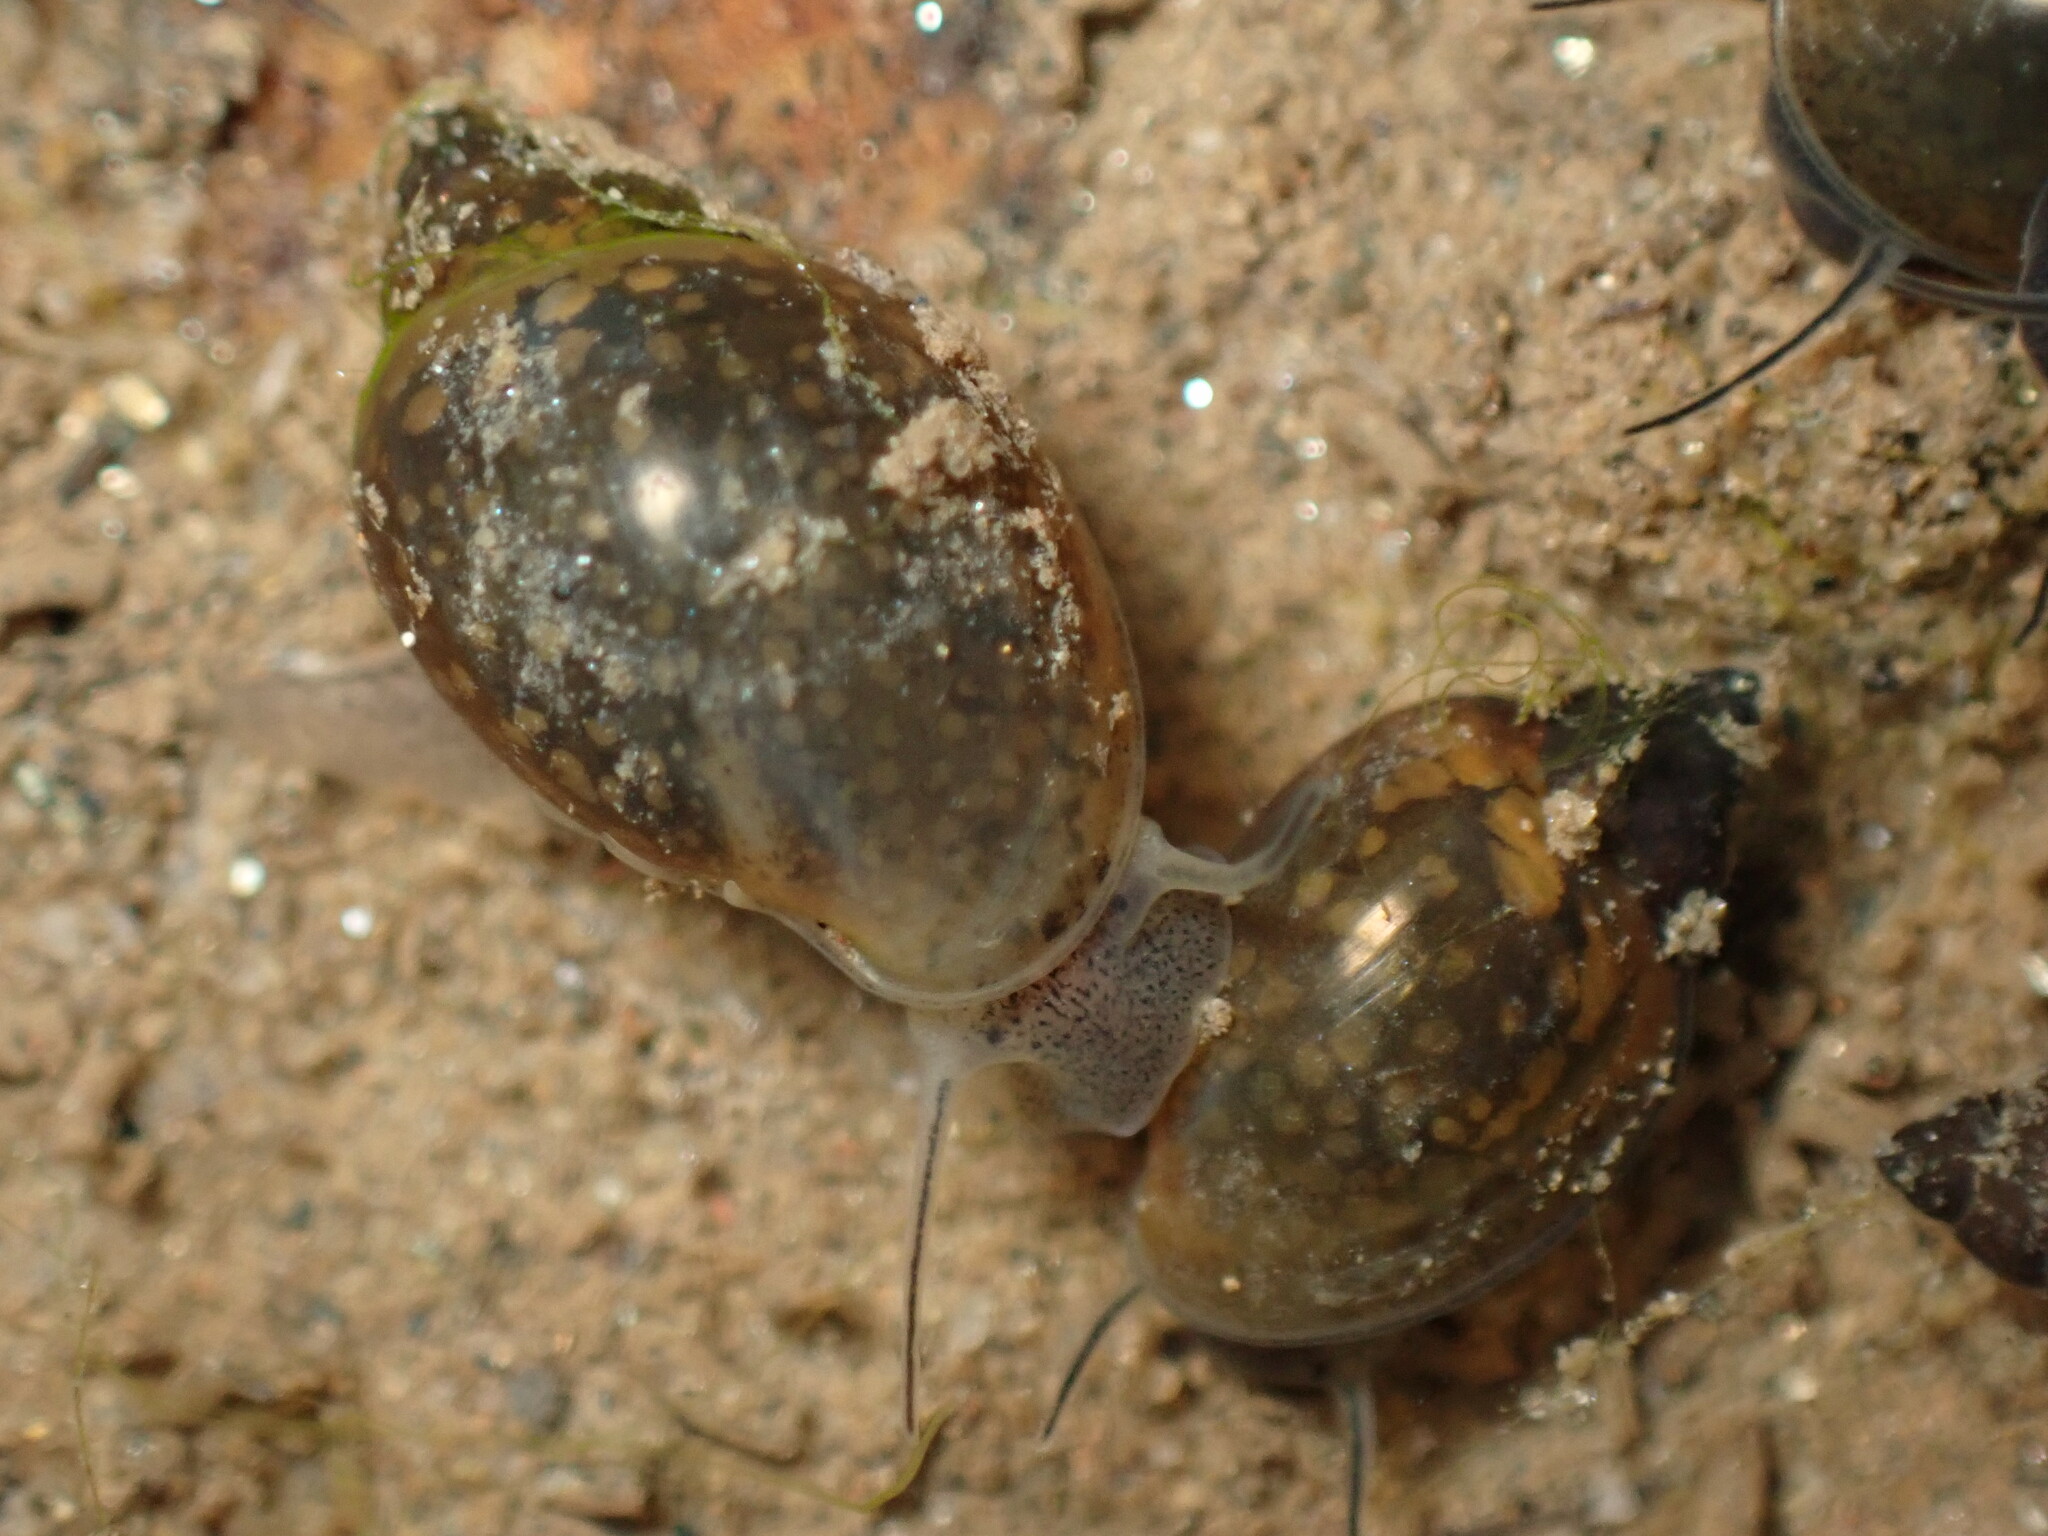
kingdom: Animalia
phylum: Mollusca
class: Gastropoda
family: Physidae
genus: Physella
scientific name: Physella acuta
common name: European physa
